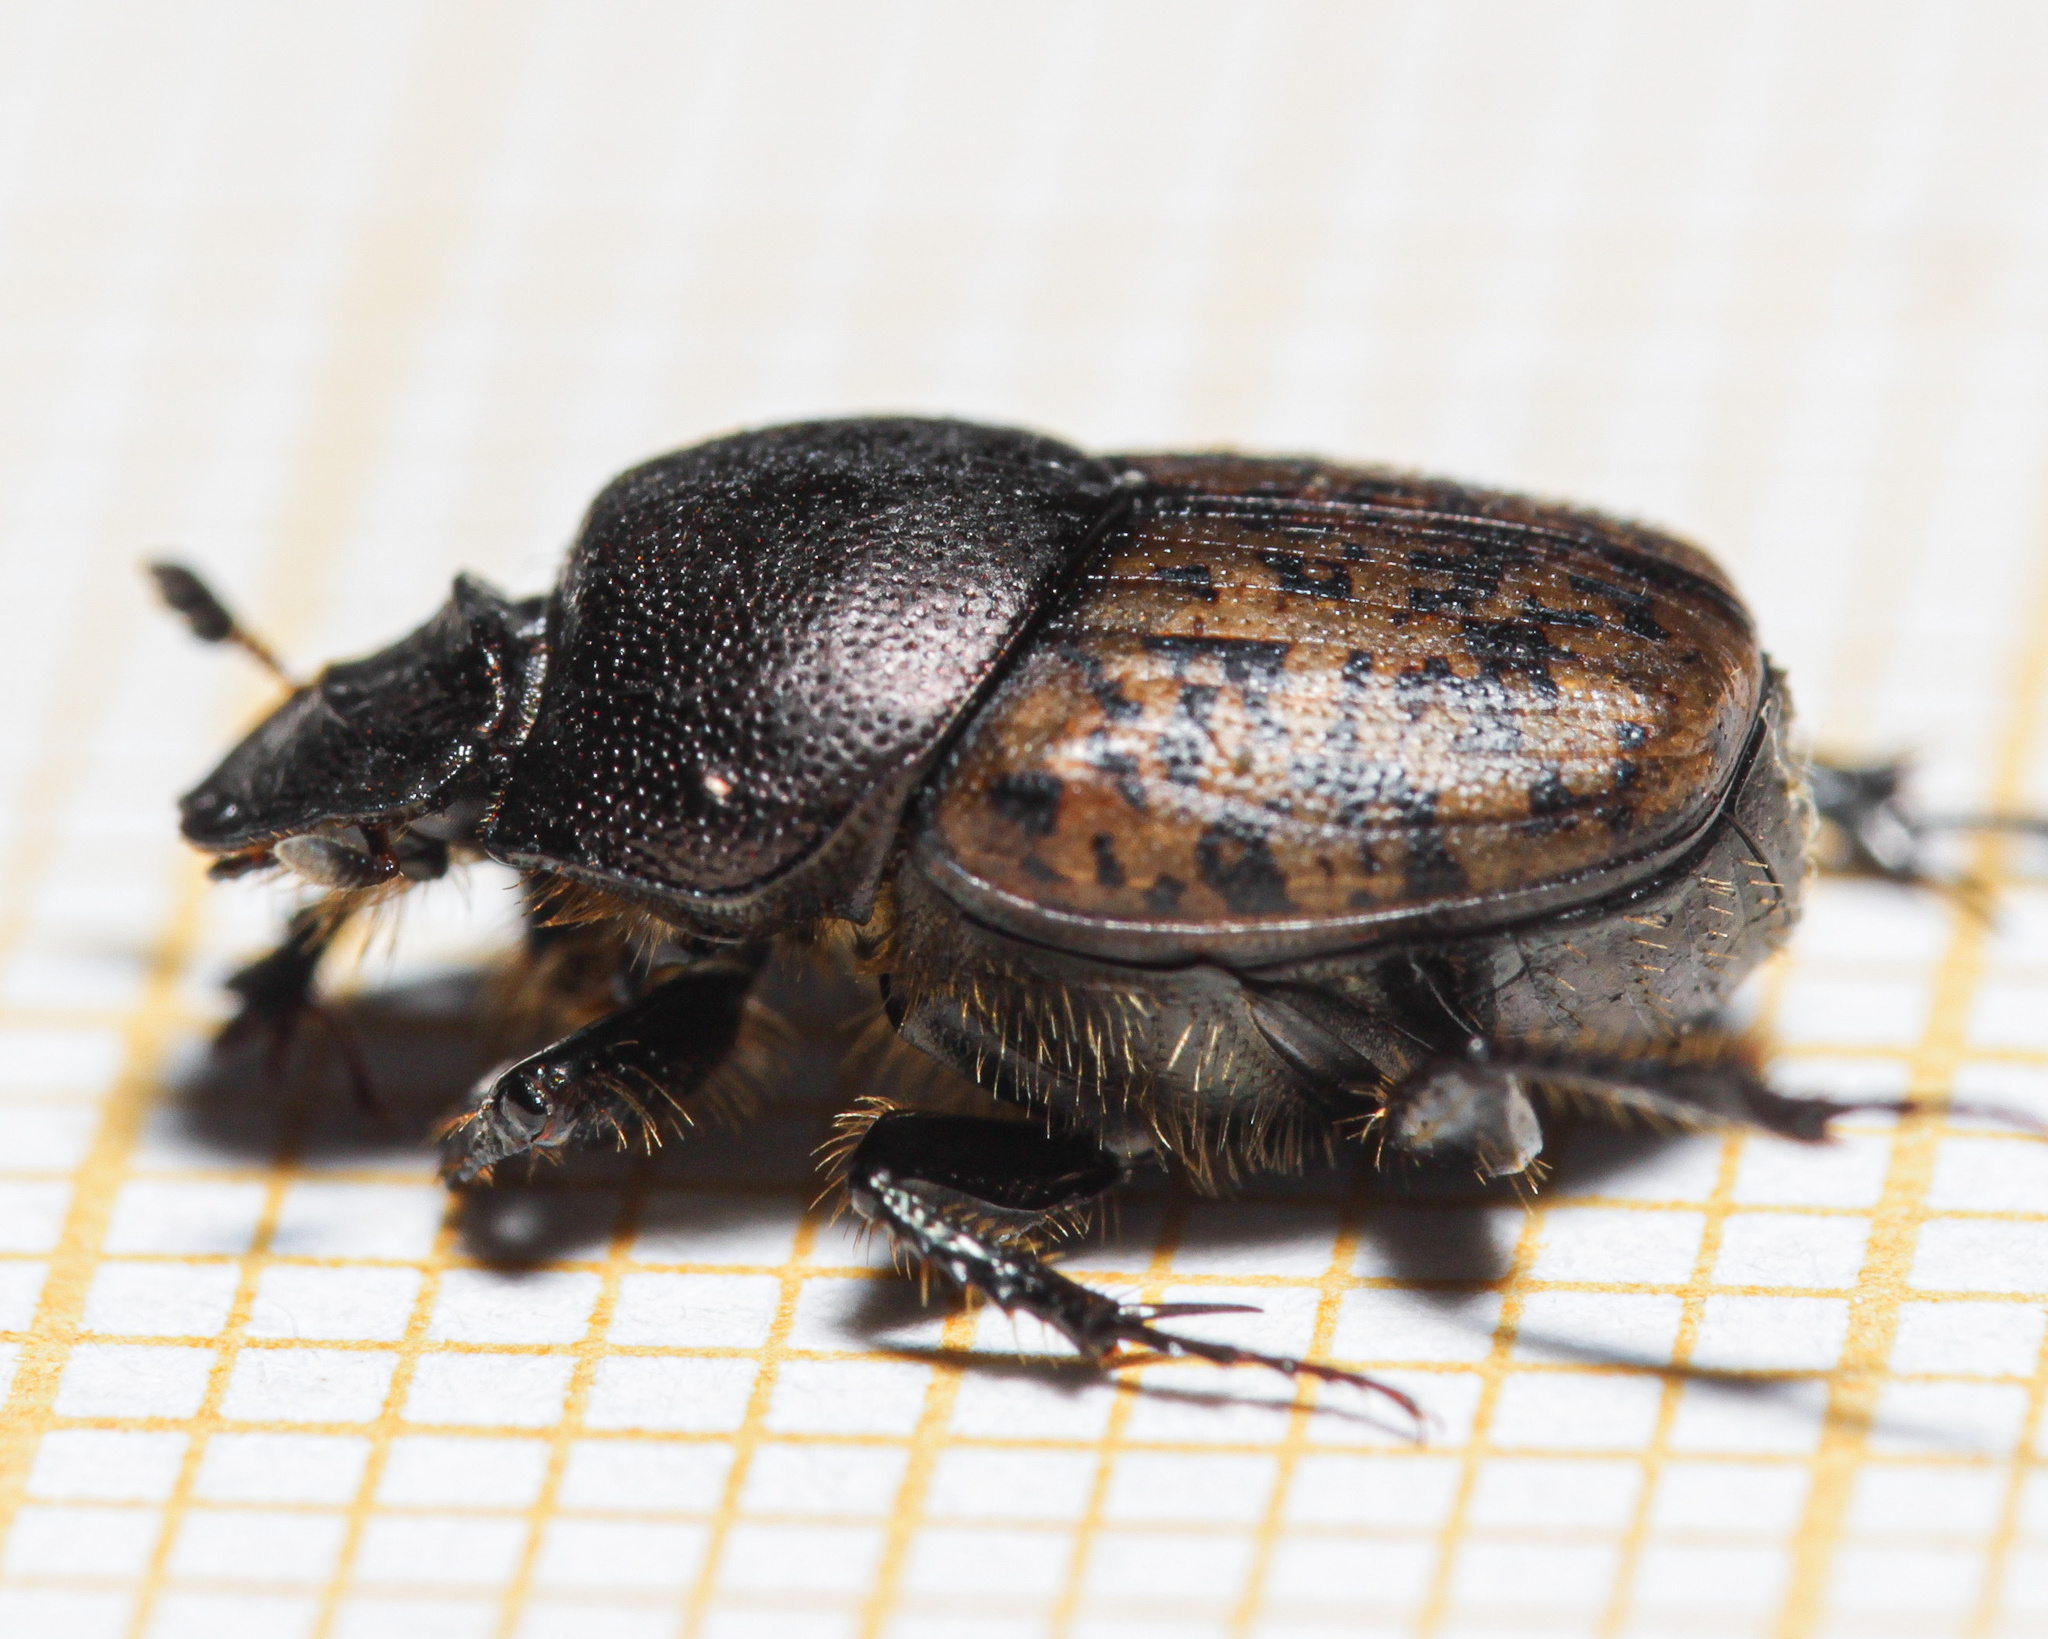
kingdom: Animalia
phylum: Arthropoda
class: Insecta
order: Coleoptera
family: Scarabaeidae
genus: Onthophagus
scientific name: Onthophagus fracticornis
